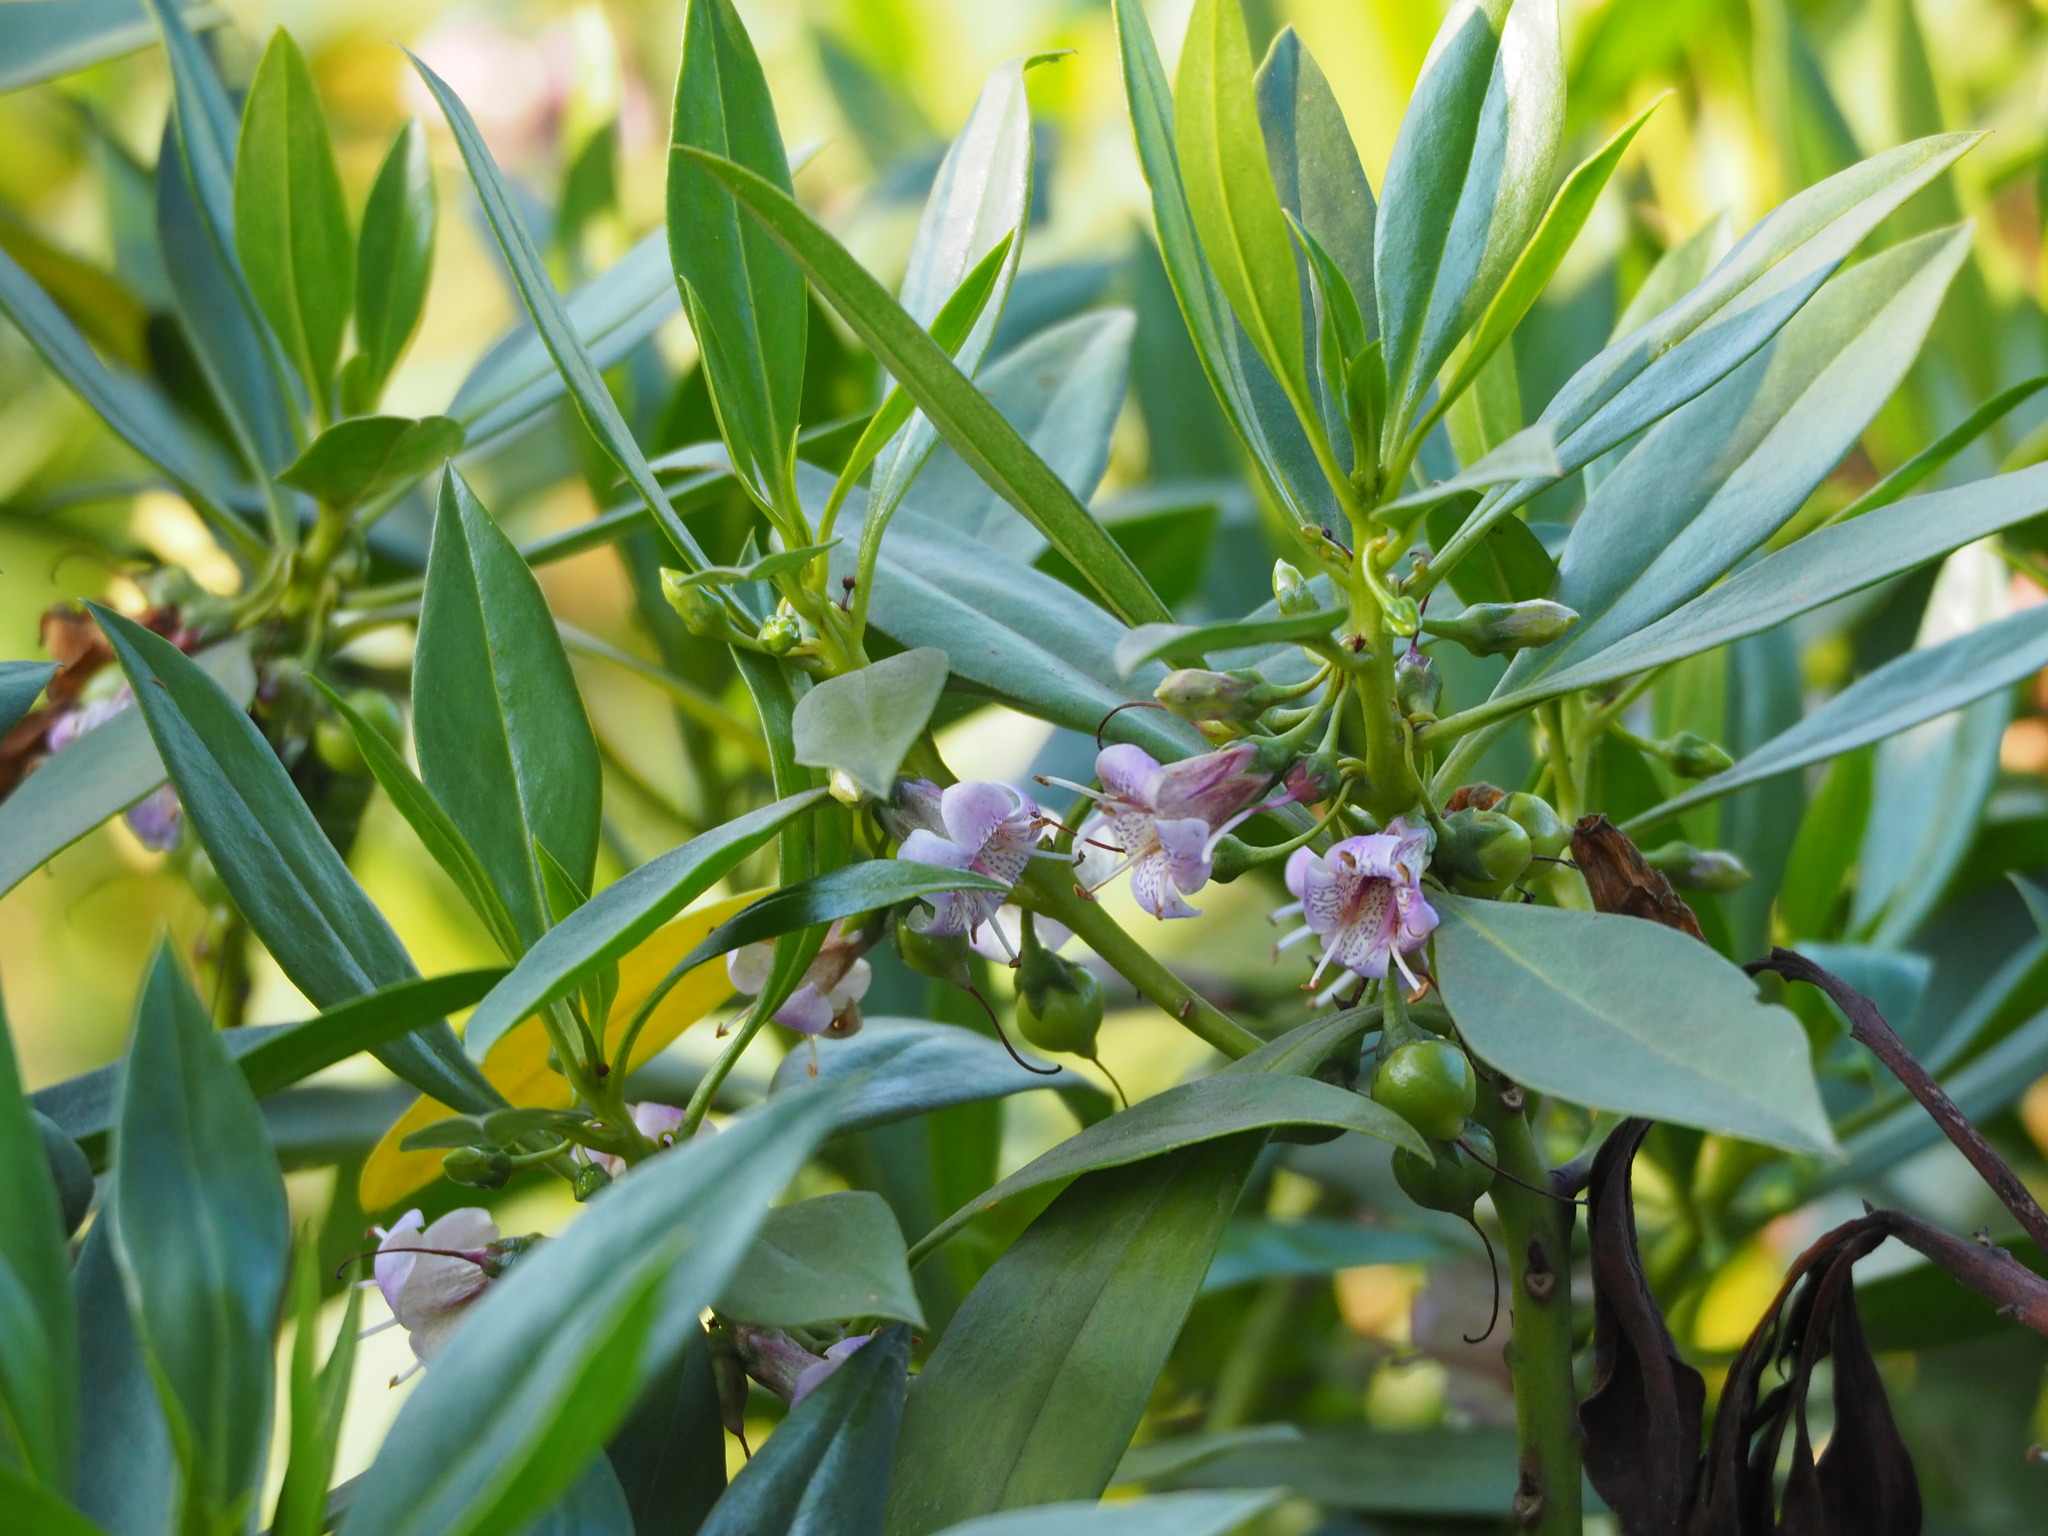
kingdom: Plantae
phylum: Tracheophyta
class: Magnoliopsida
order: Lamiales
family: Scrophulariaceae
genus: Myoporum
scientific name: Myoporum bontioides
